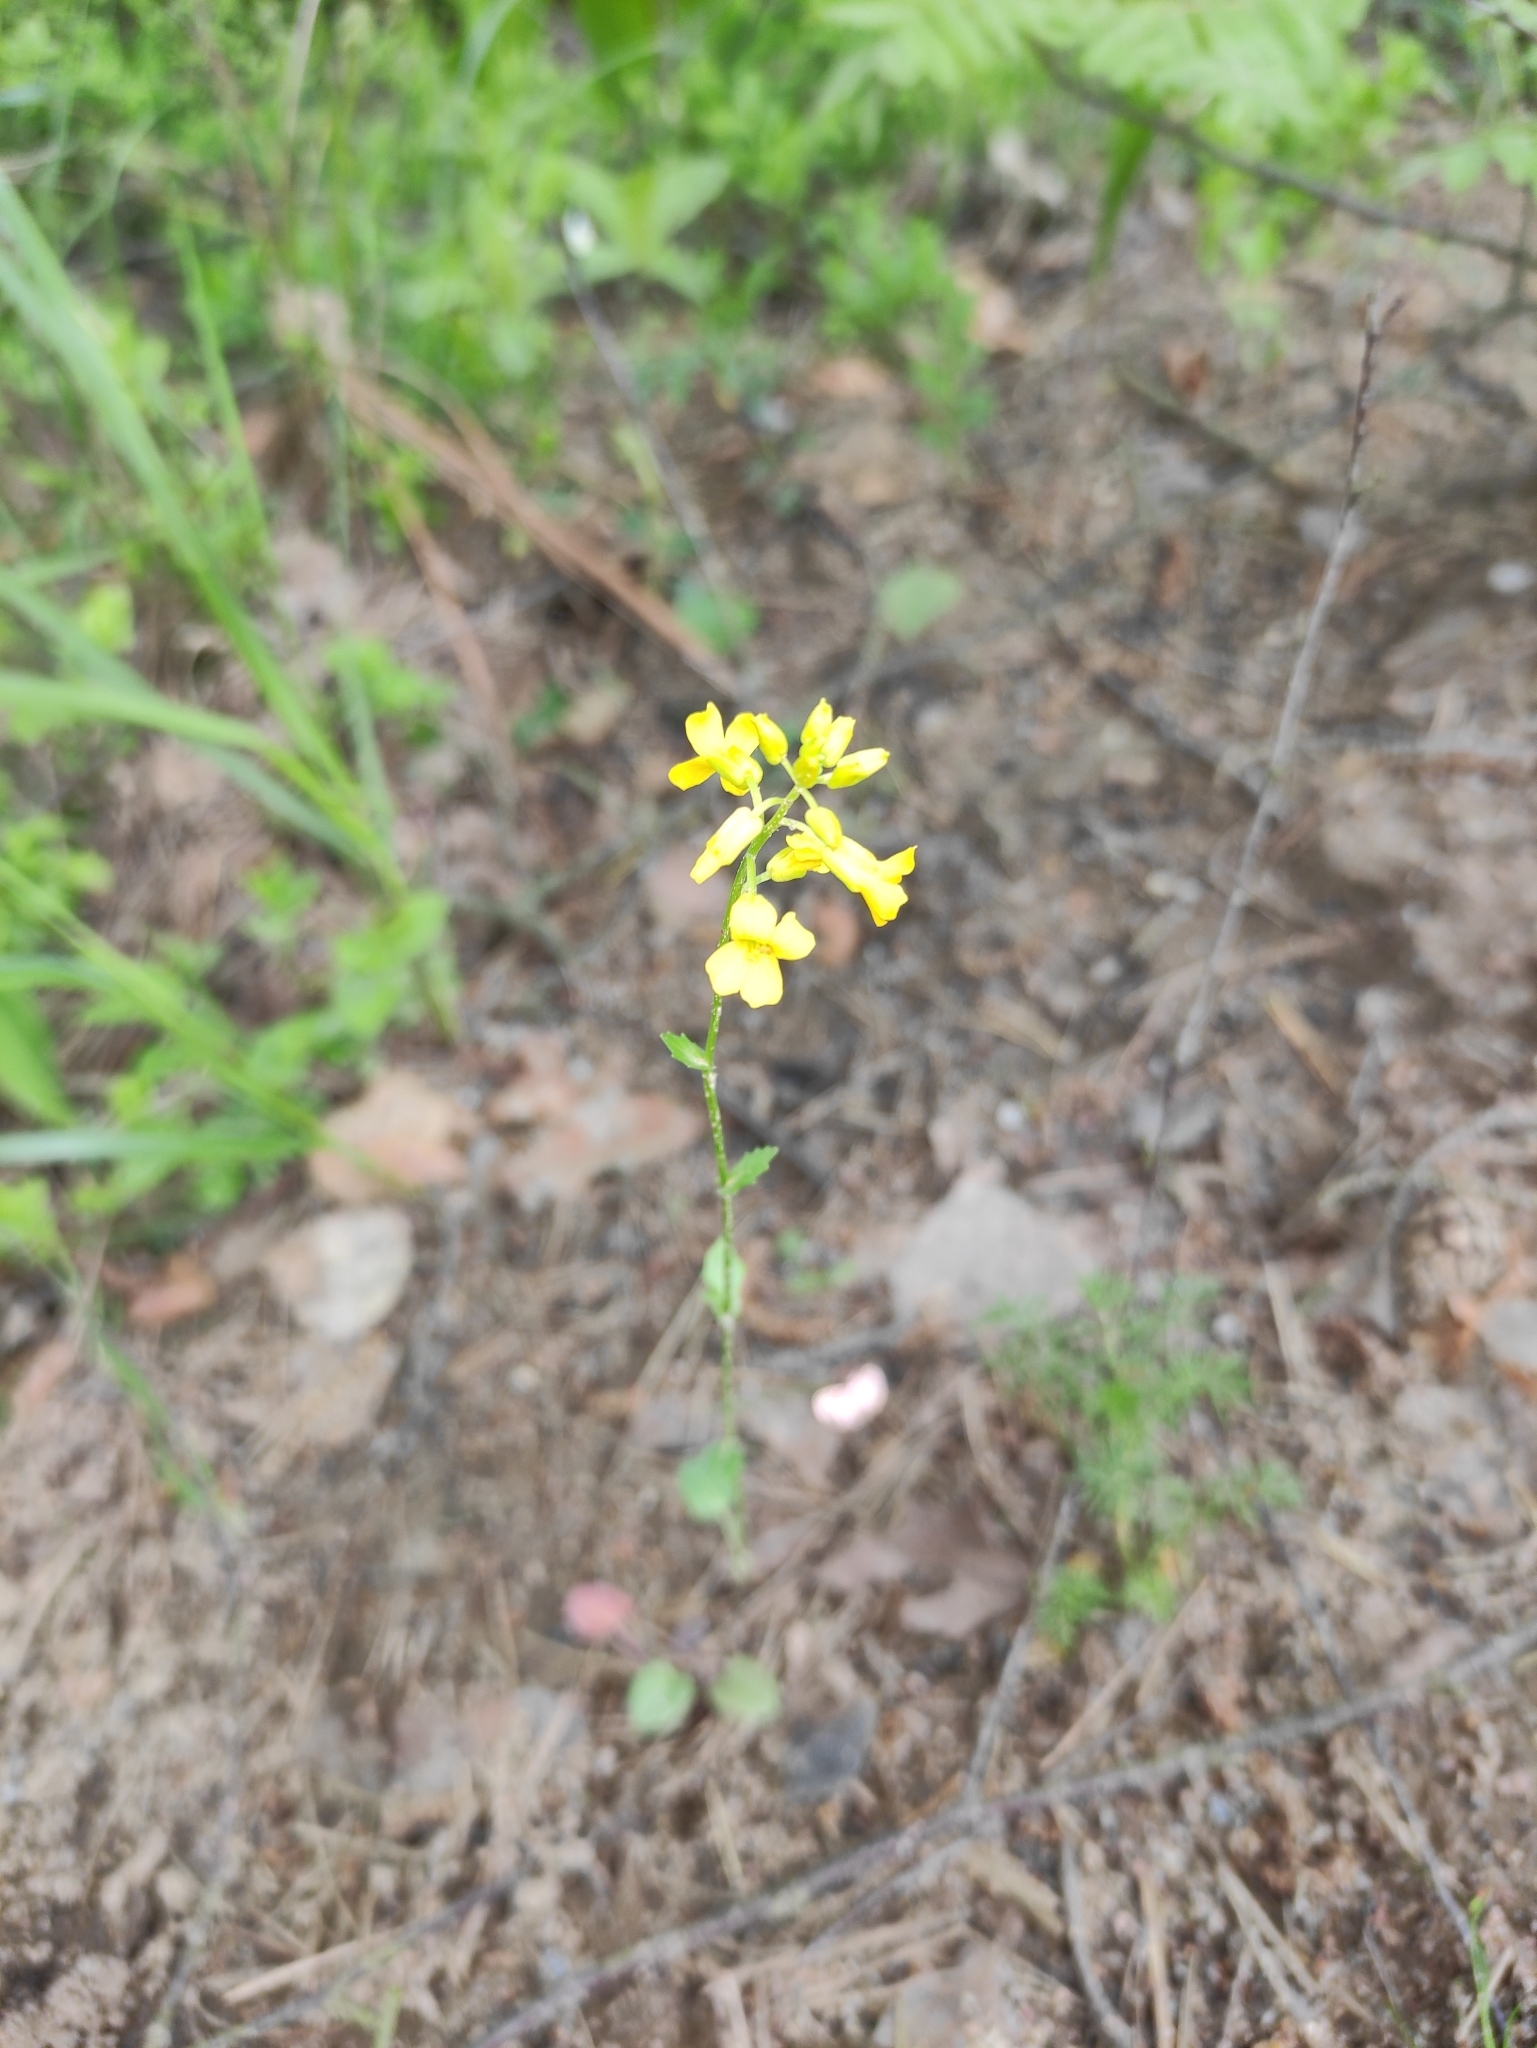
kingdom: Plantae
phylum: Tracheophyta
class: Magnoliopsida
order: Brassicales
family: Brassicaceae
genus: Barbarea
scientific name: Barbarea vulgaris
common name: Cressy-greens
